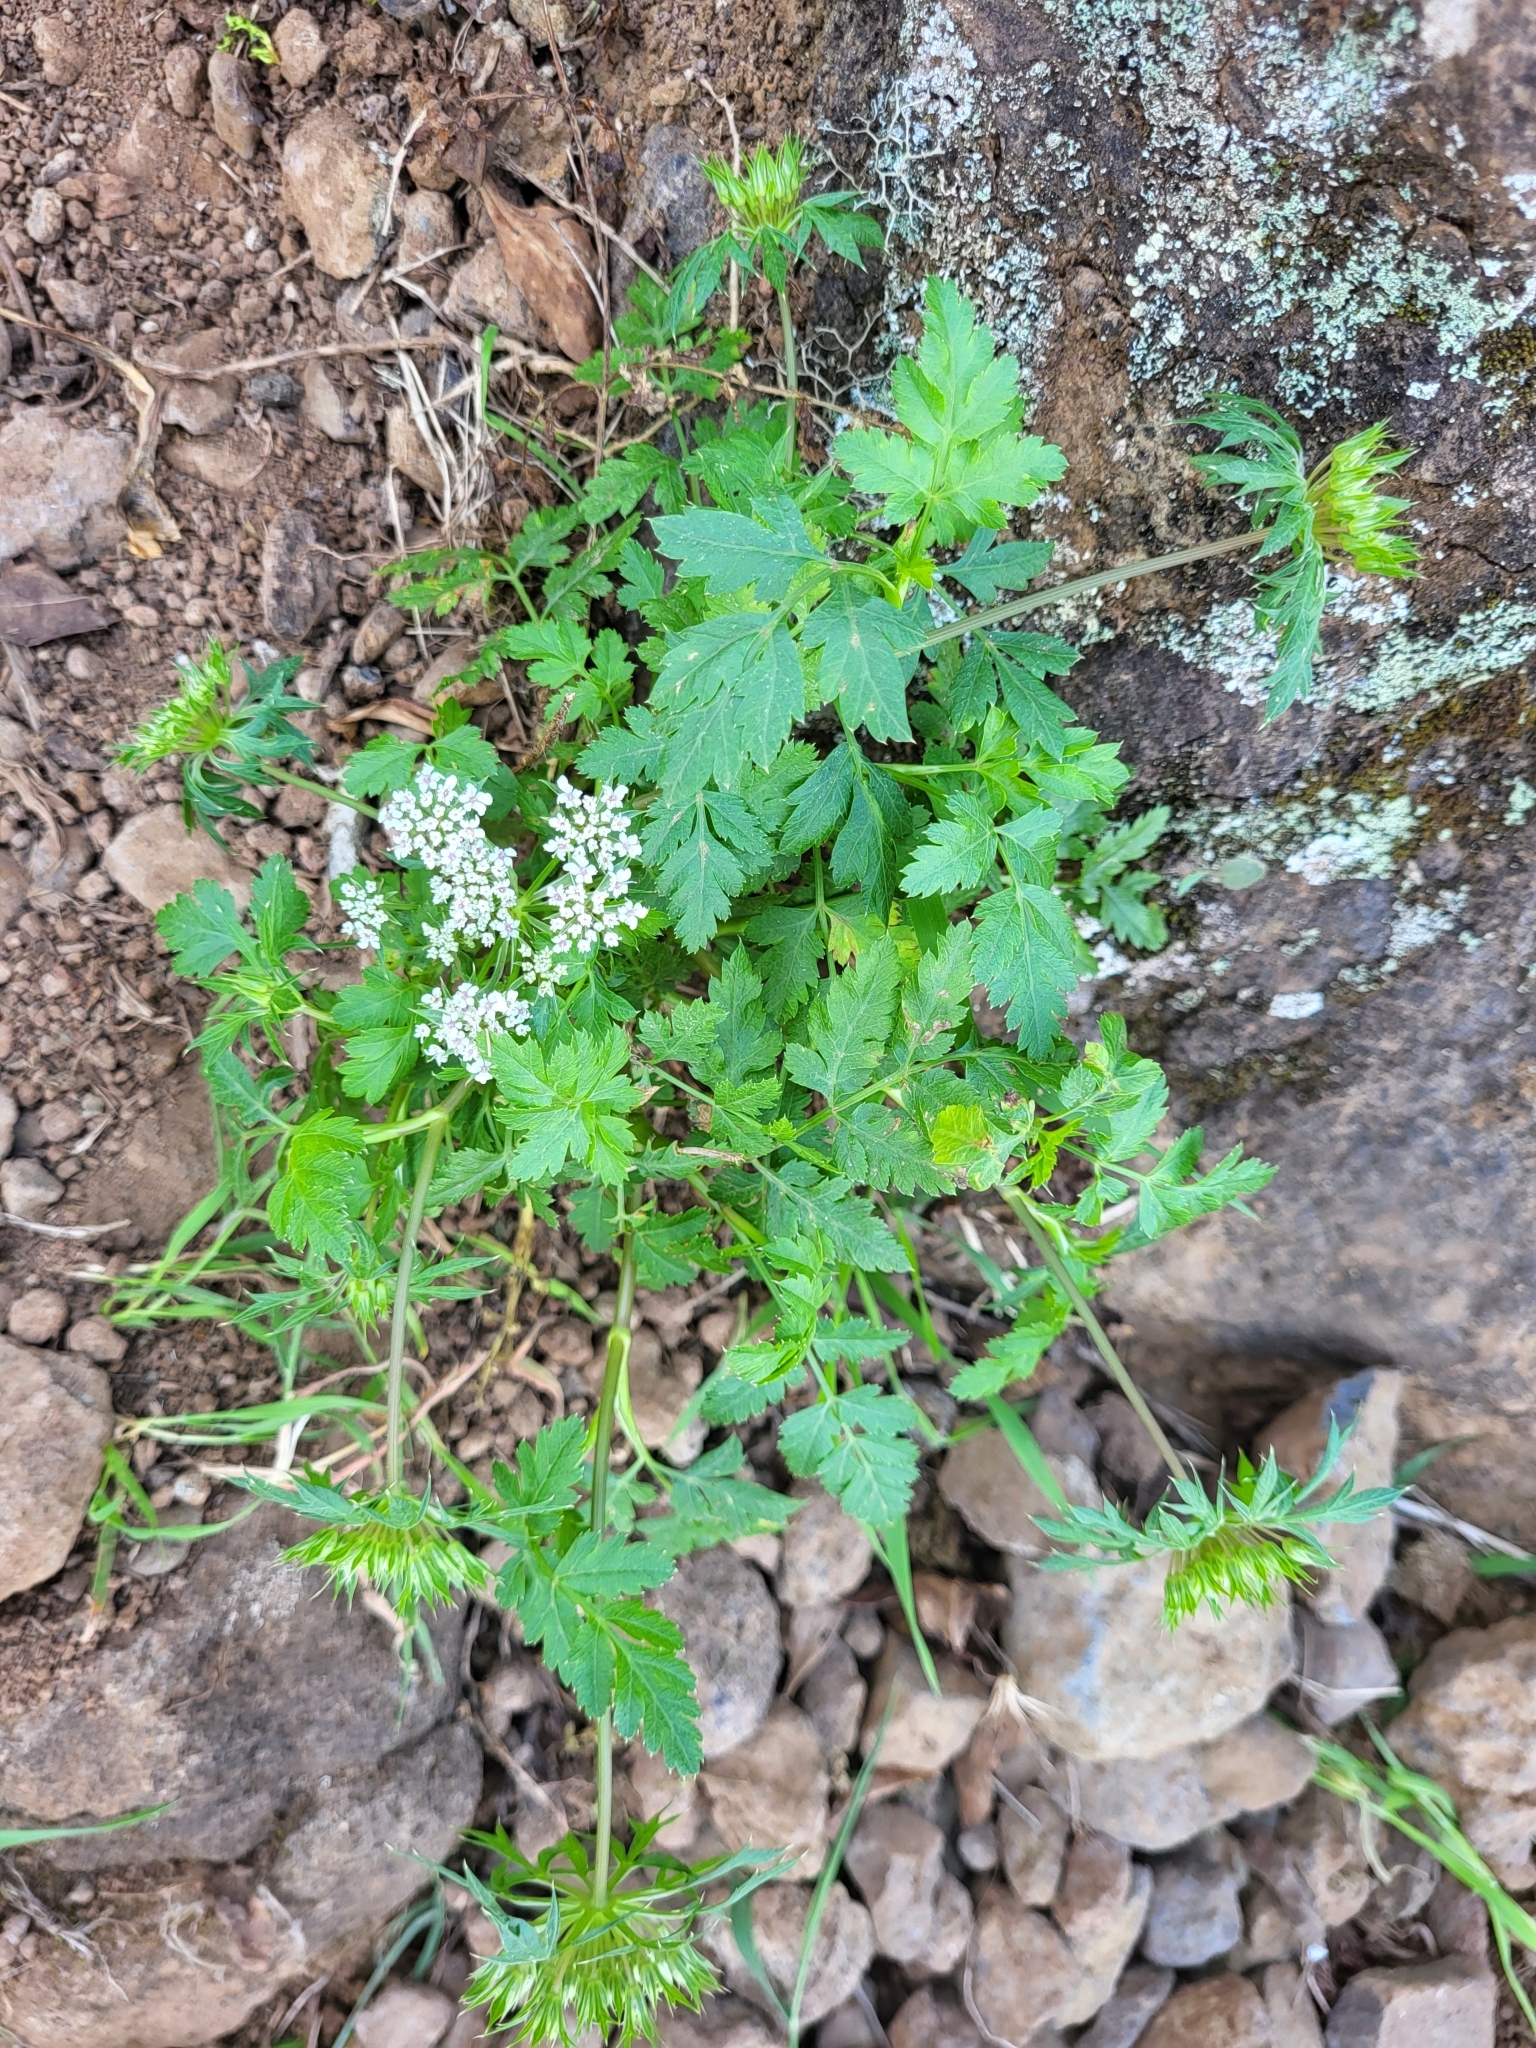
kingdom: Plantae
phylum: Tracheophyta
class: Magnoliopsida
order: Apiales
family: Apiaceae
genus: Daucus
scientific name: Daucus insularis
